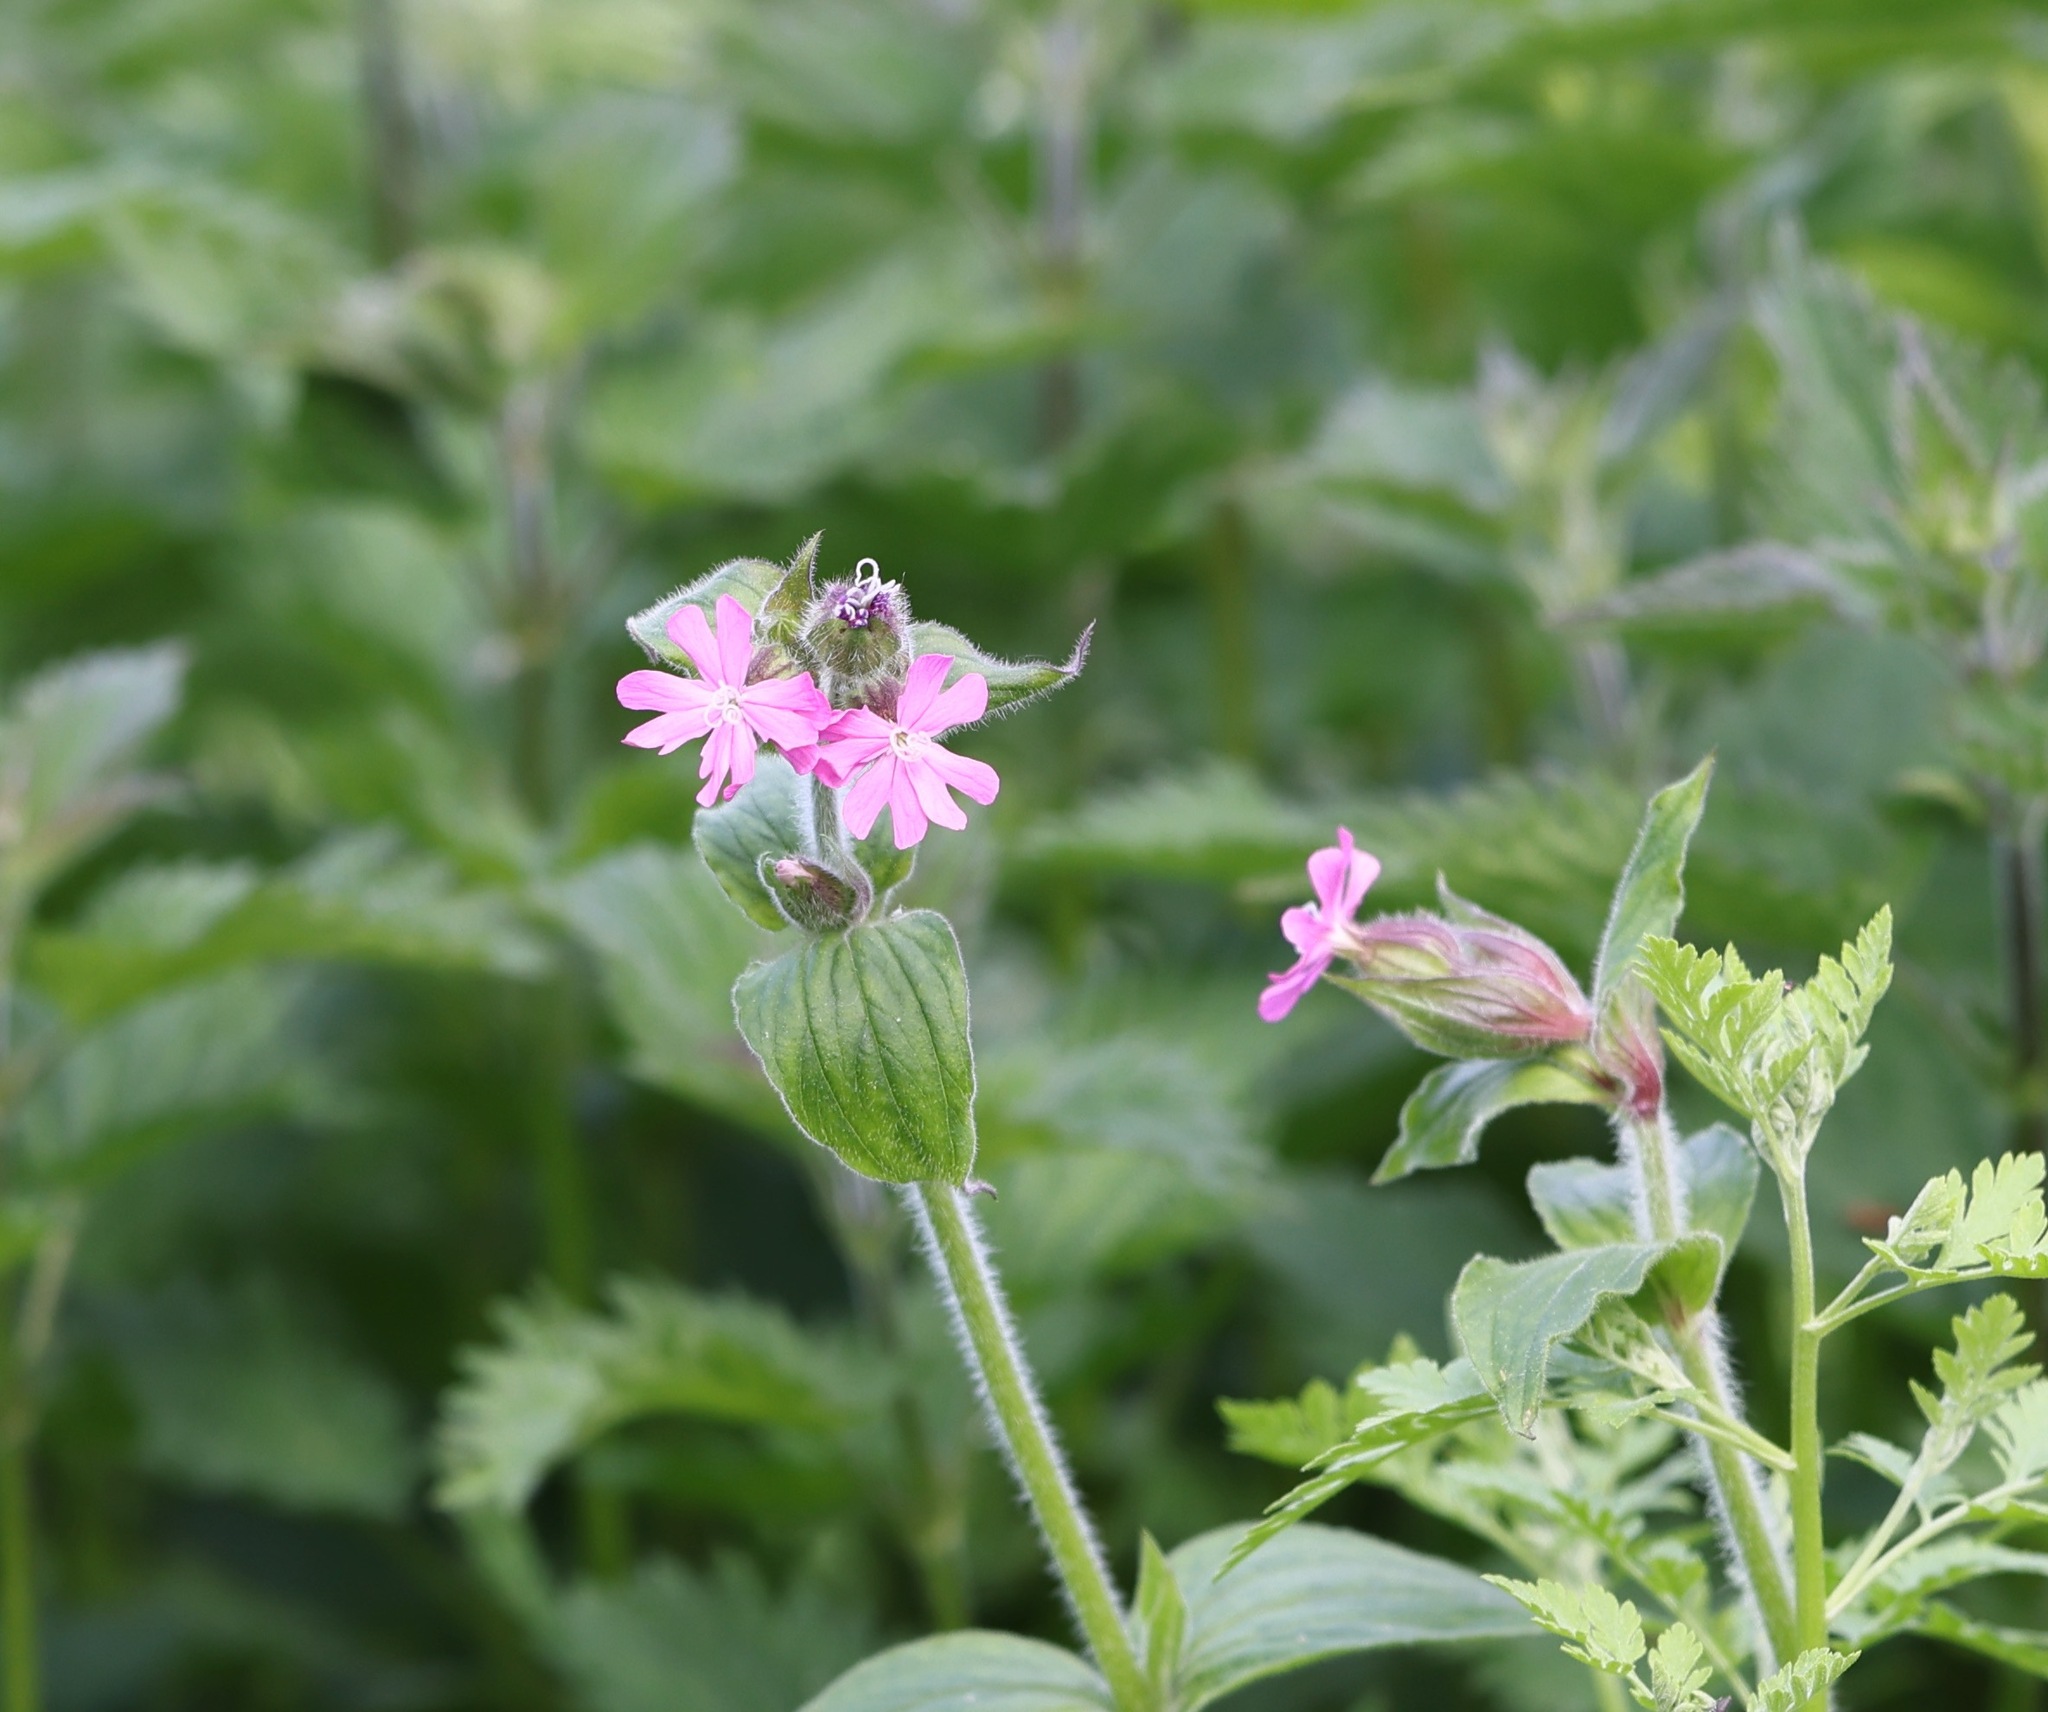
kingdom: Plantae
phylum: Tracheophyta
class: Magnoliopsida
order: Caryophyllales
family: Caryophyllaceae
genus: Silene
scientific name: Silene dioica
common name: Red campion
